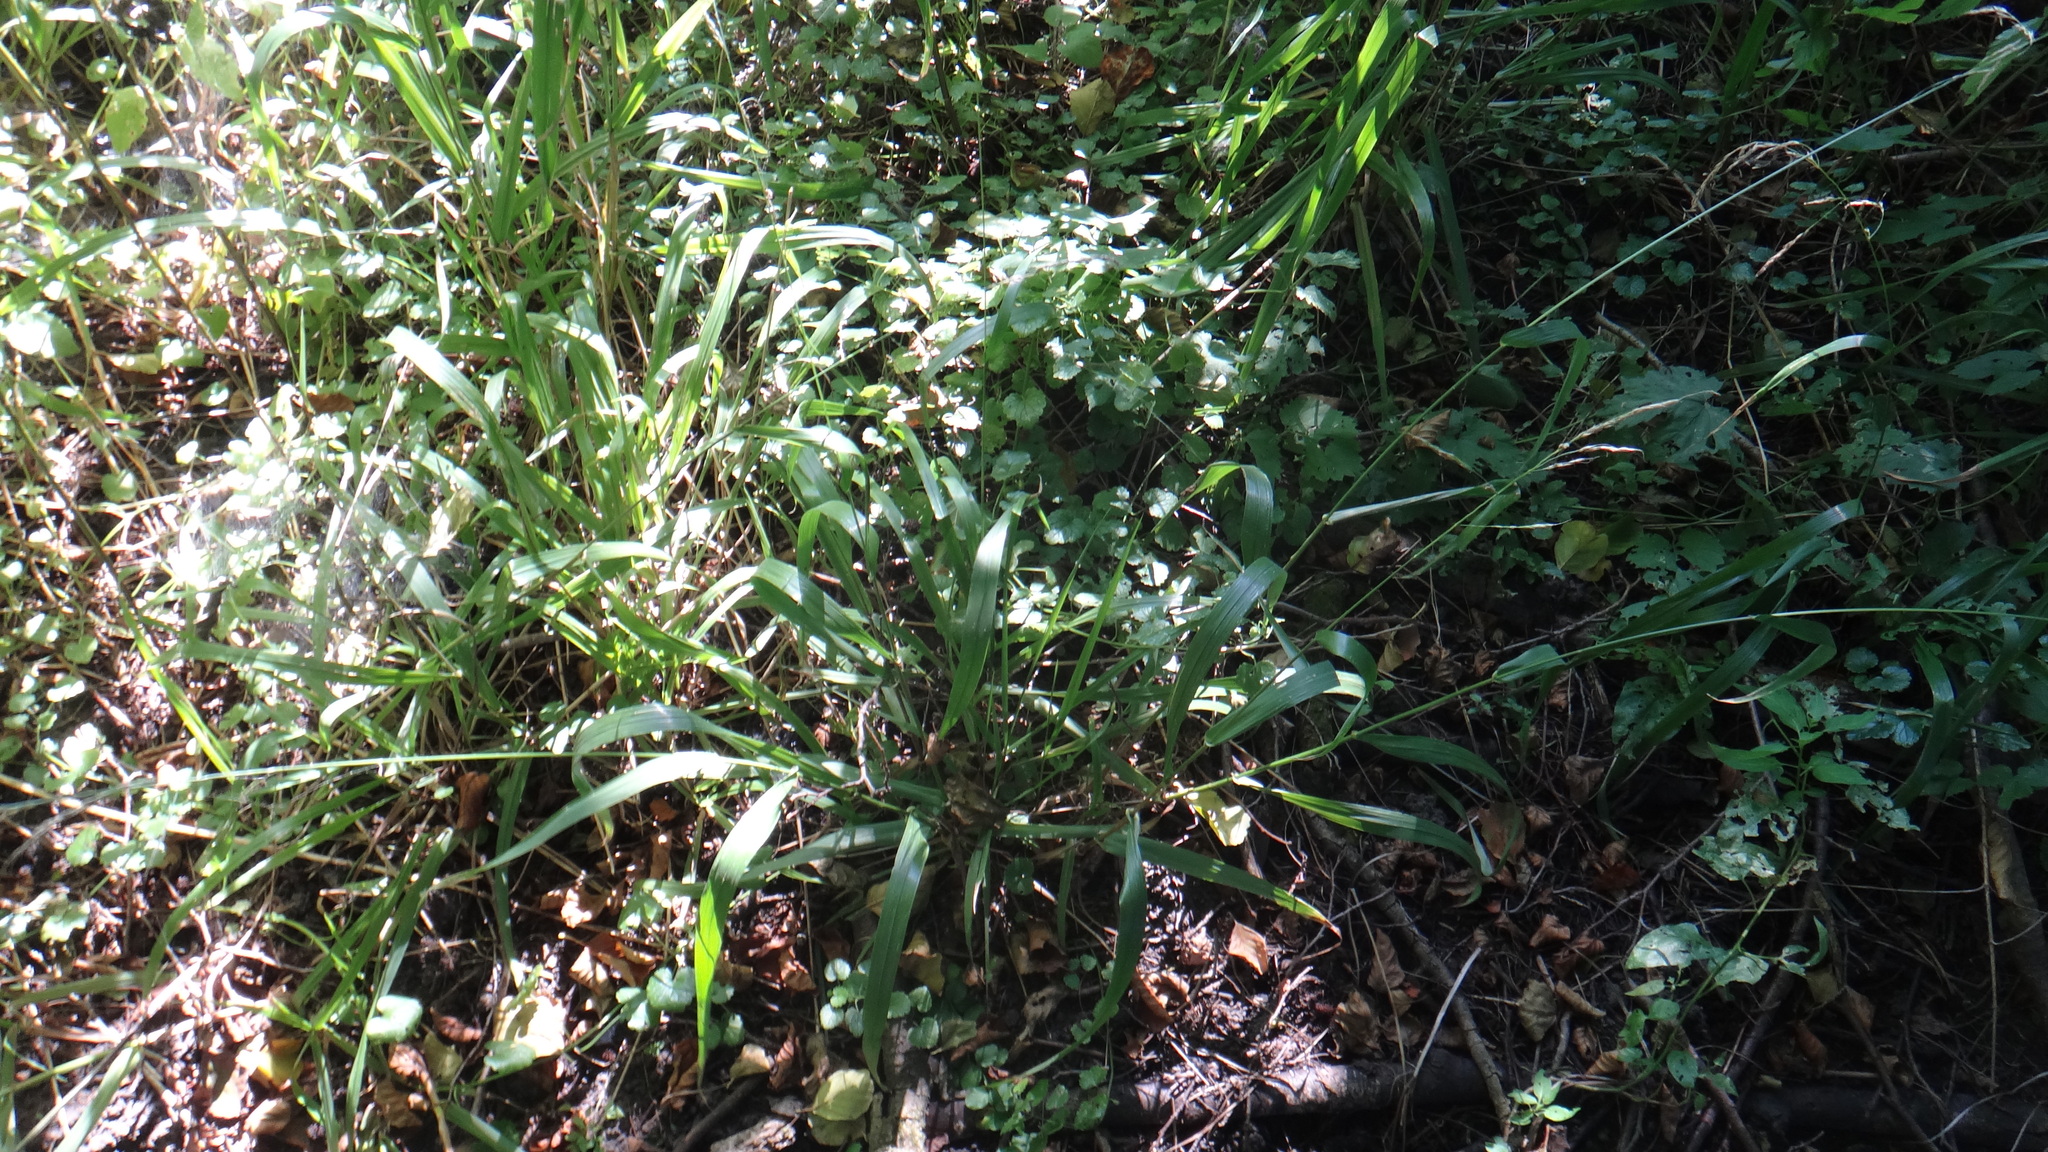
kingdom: Plantae
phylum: Tracheophyta
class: Liliopsida
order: Poales
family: Poaceae
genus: Lolium
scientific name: Lolium giganteum
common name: Giant fescue
